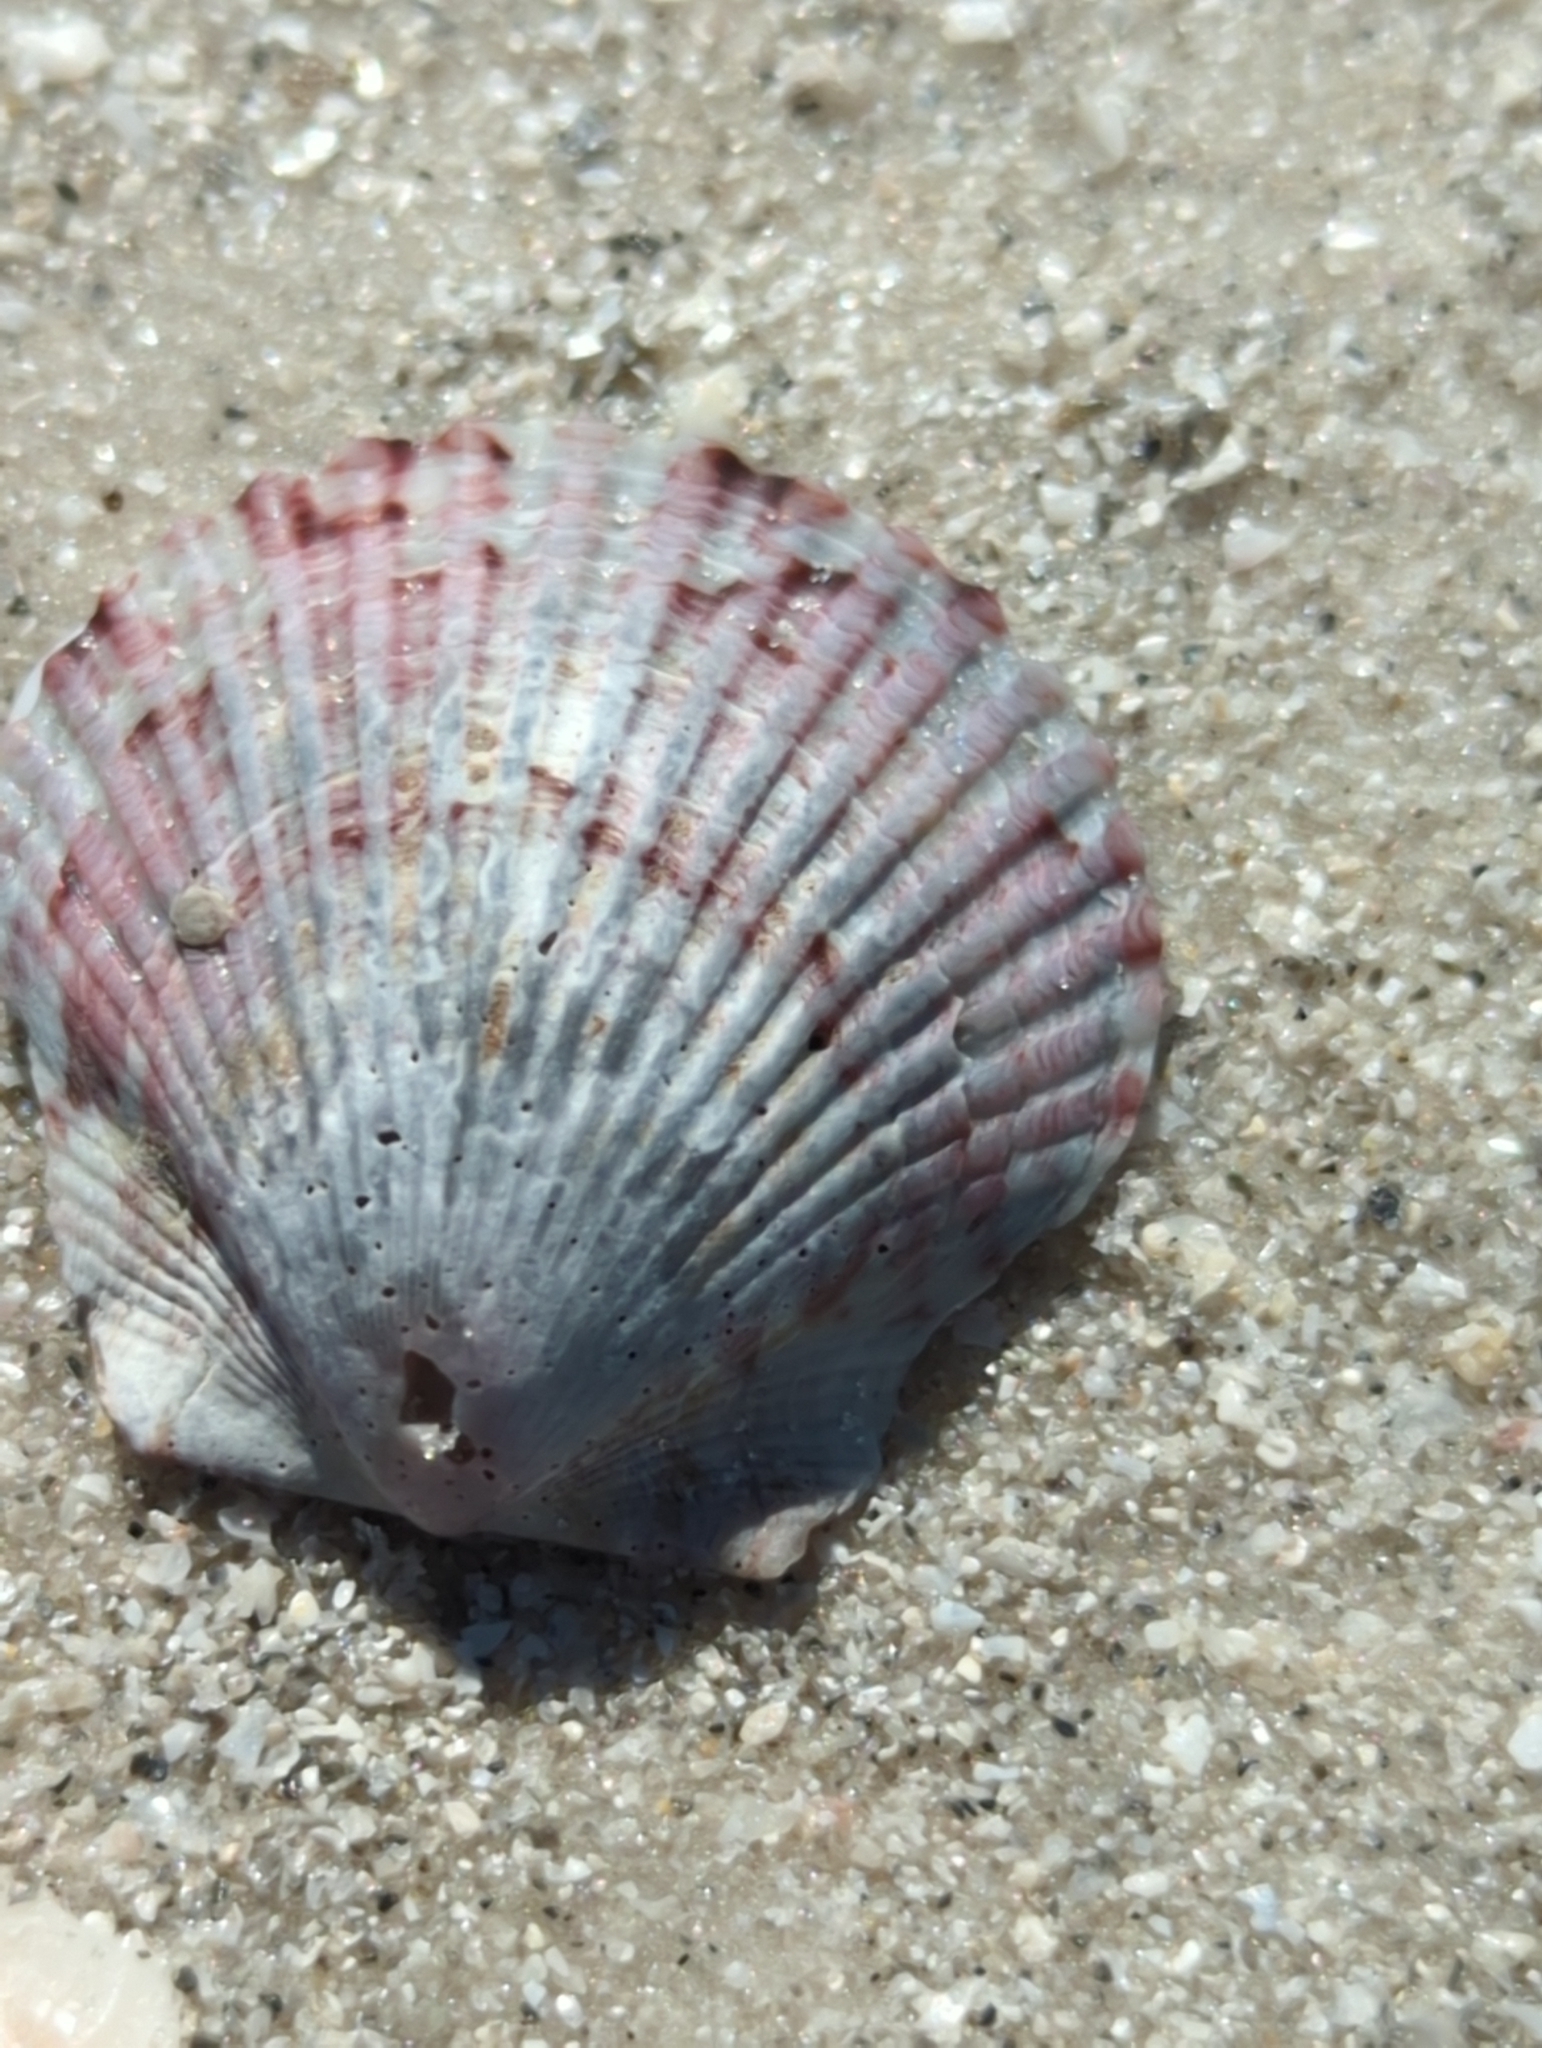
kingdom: Animalia
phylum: Mollusca
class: Bivalvia
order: Pectinida
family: Pectinidae
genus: Argopecten
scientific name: Argopecten gibbus
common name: Atlantic calico scallop
